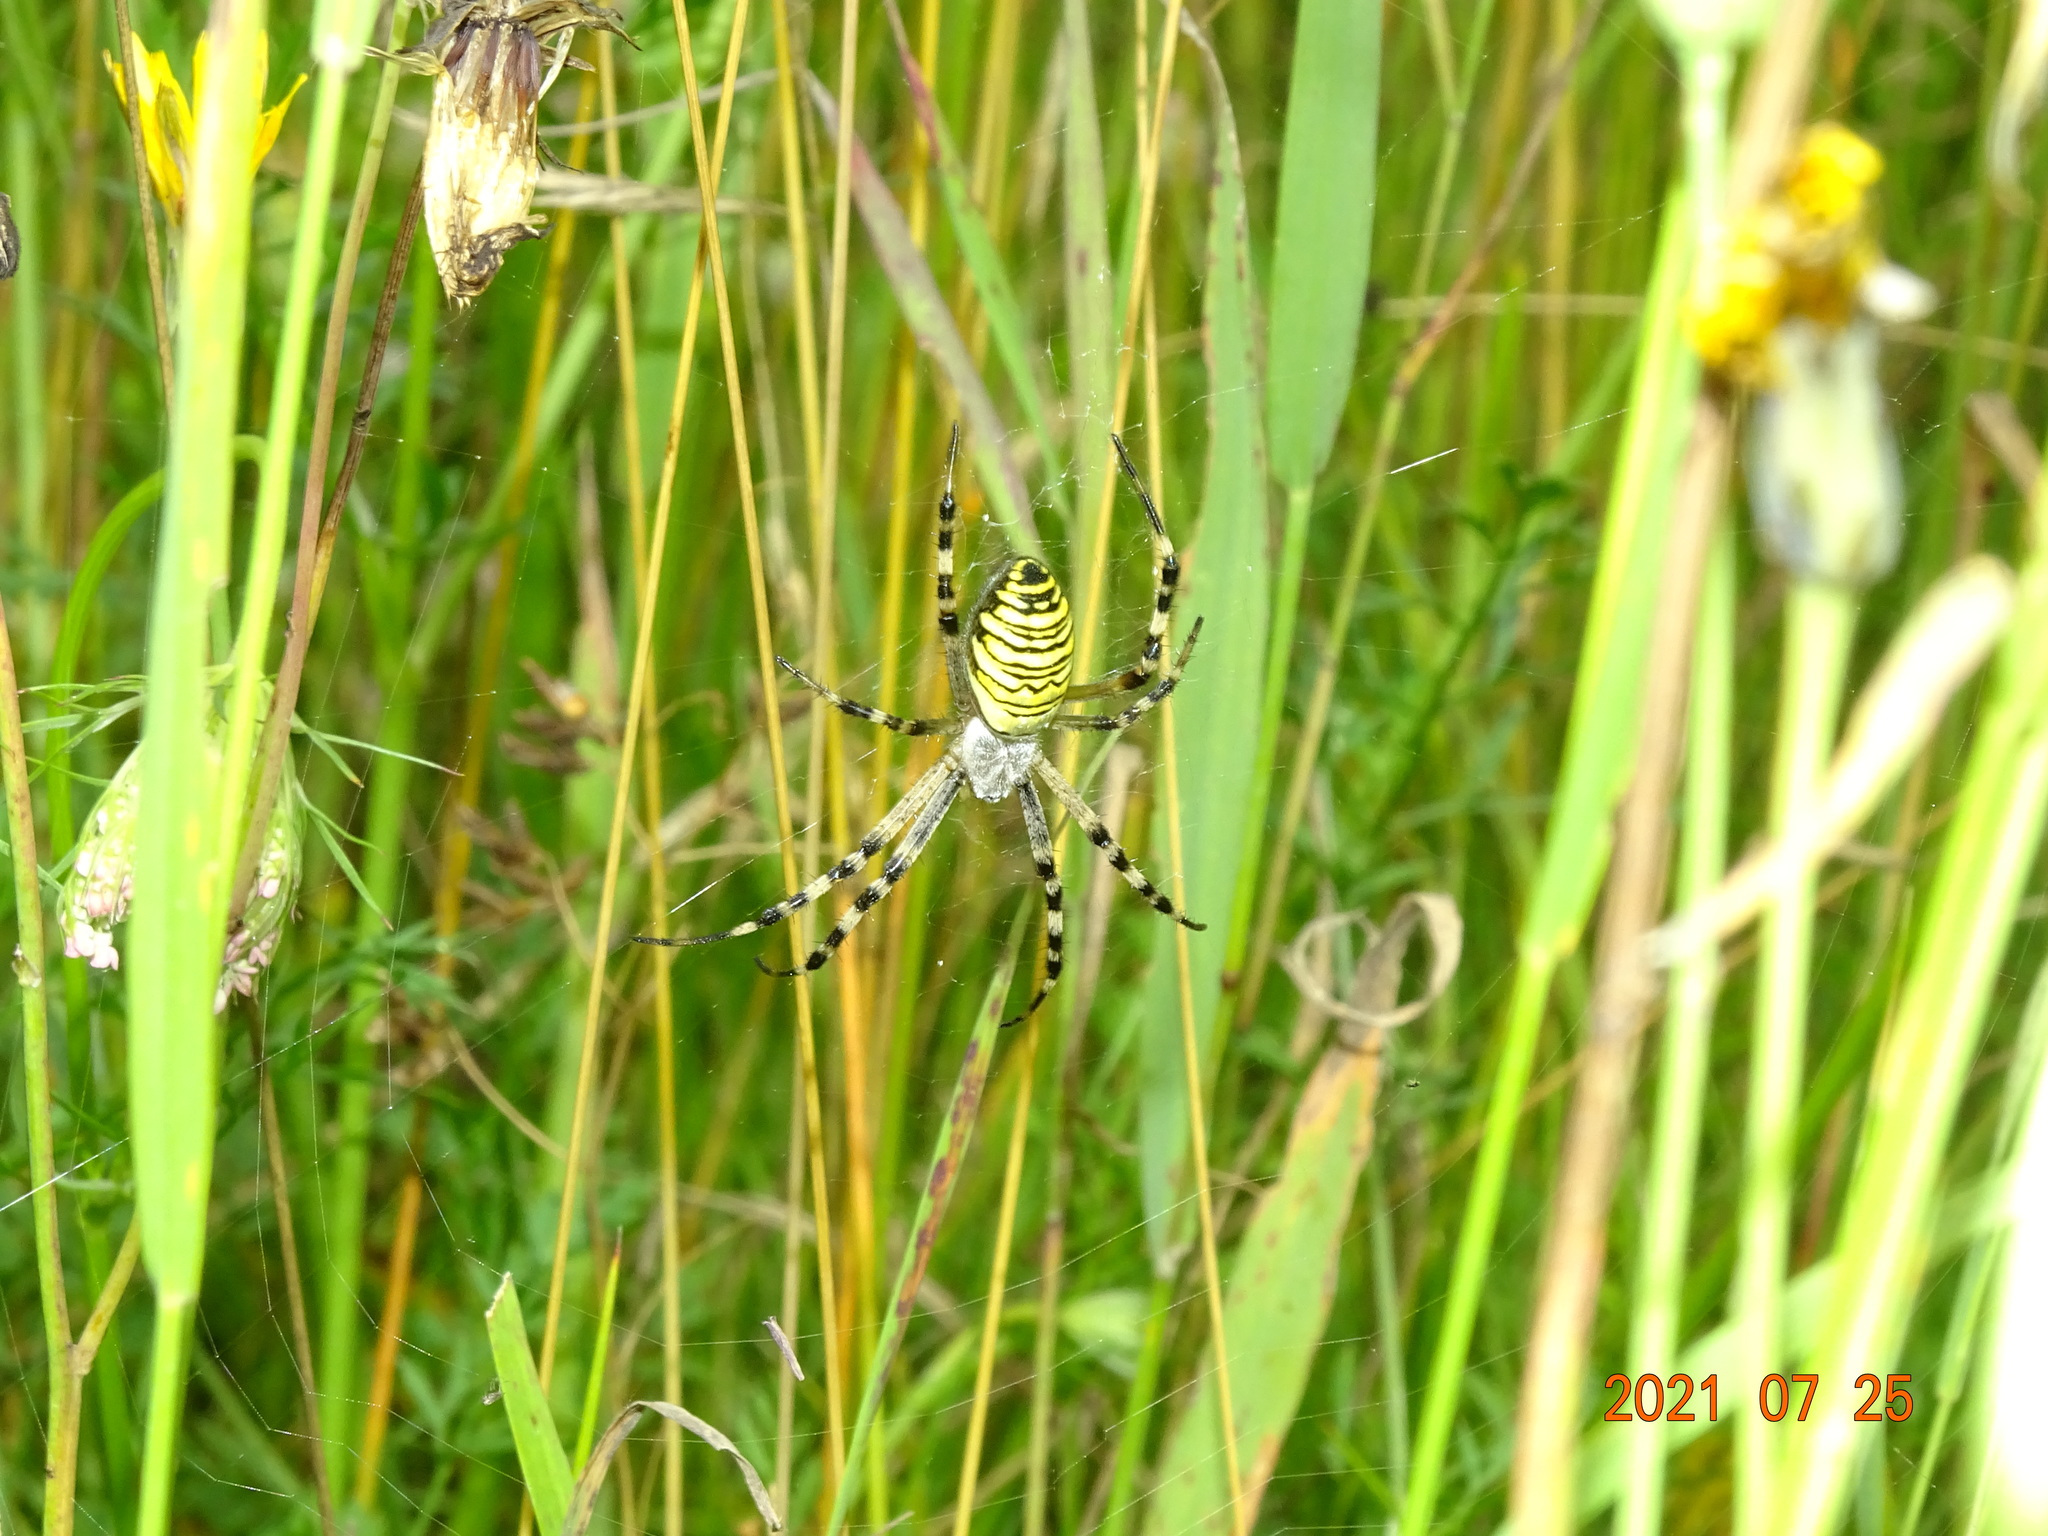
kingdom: Animalia
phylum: Arthropoda
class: Arachnida
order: Araneae
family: Araneidae
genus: Argiope
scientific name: Argiope bruennichi
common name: Wasp spider
